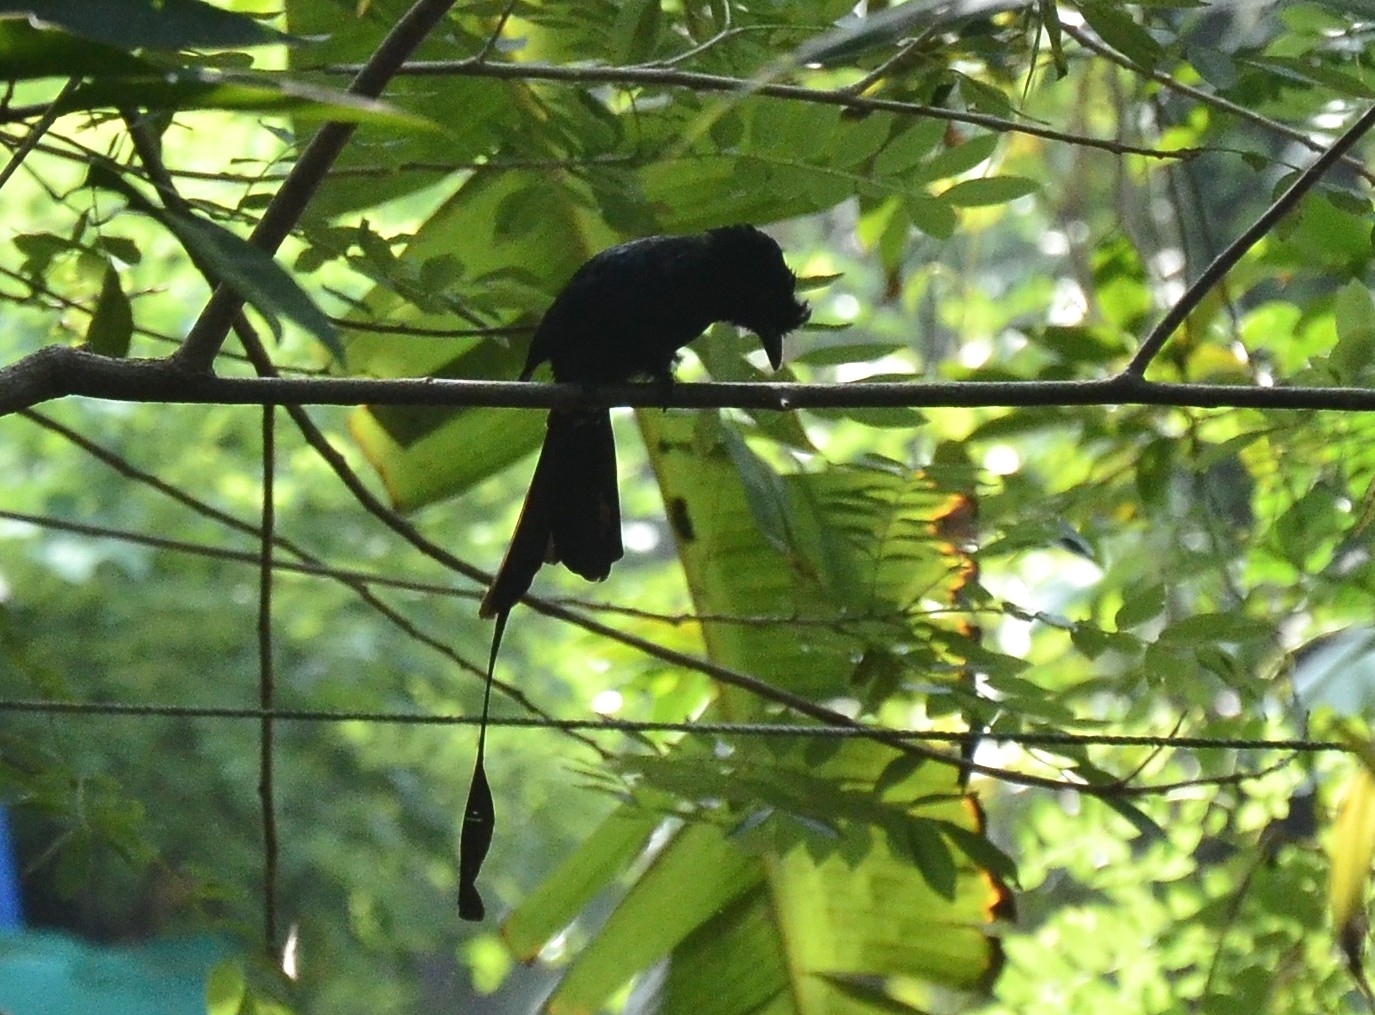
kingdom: Animalia
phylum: Chordata
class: Aves
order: Passeriformes
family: Dicruridae
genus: Dicrurus
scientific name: Dicrurus paradiseus
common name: Greater racket-tailed drongo
